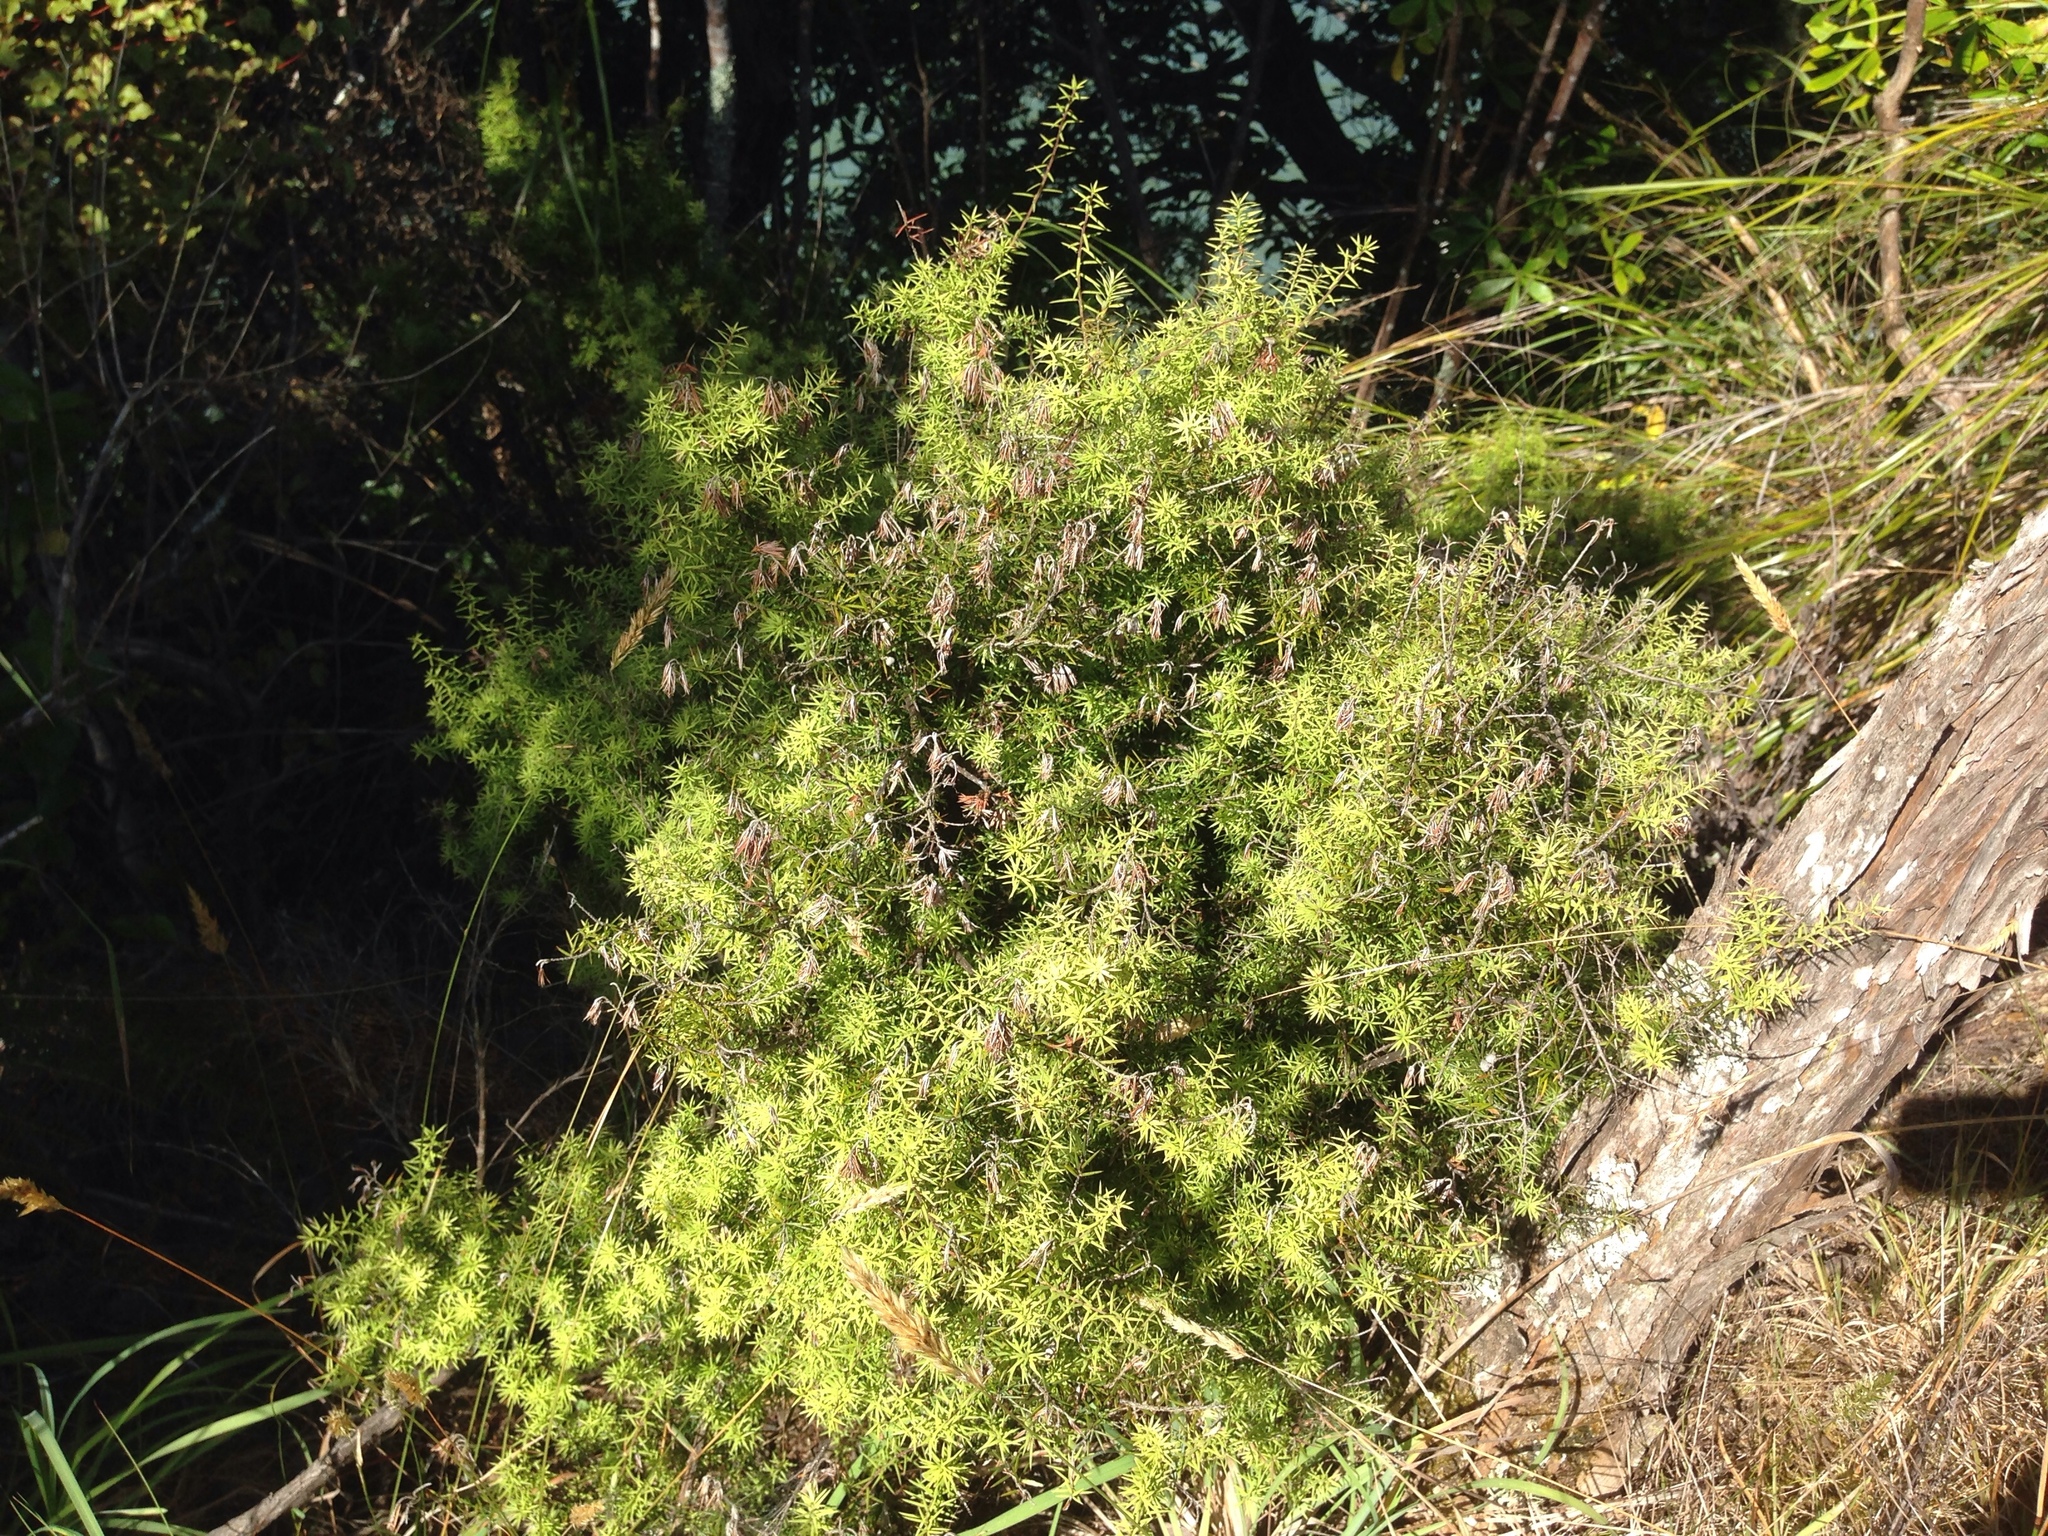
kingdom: Plantae
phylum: Tracheophyta
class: Magnoliopsida
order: Ericales
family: Ericaceae
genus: Leptecophylla
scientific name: Leptecophylla juniperina
